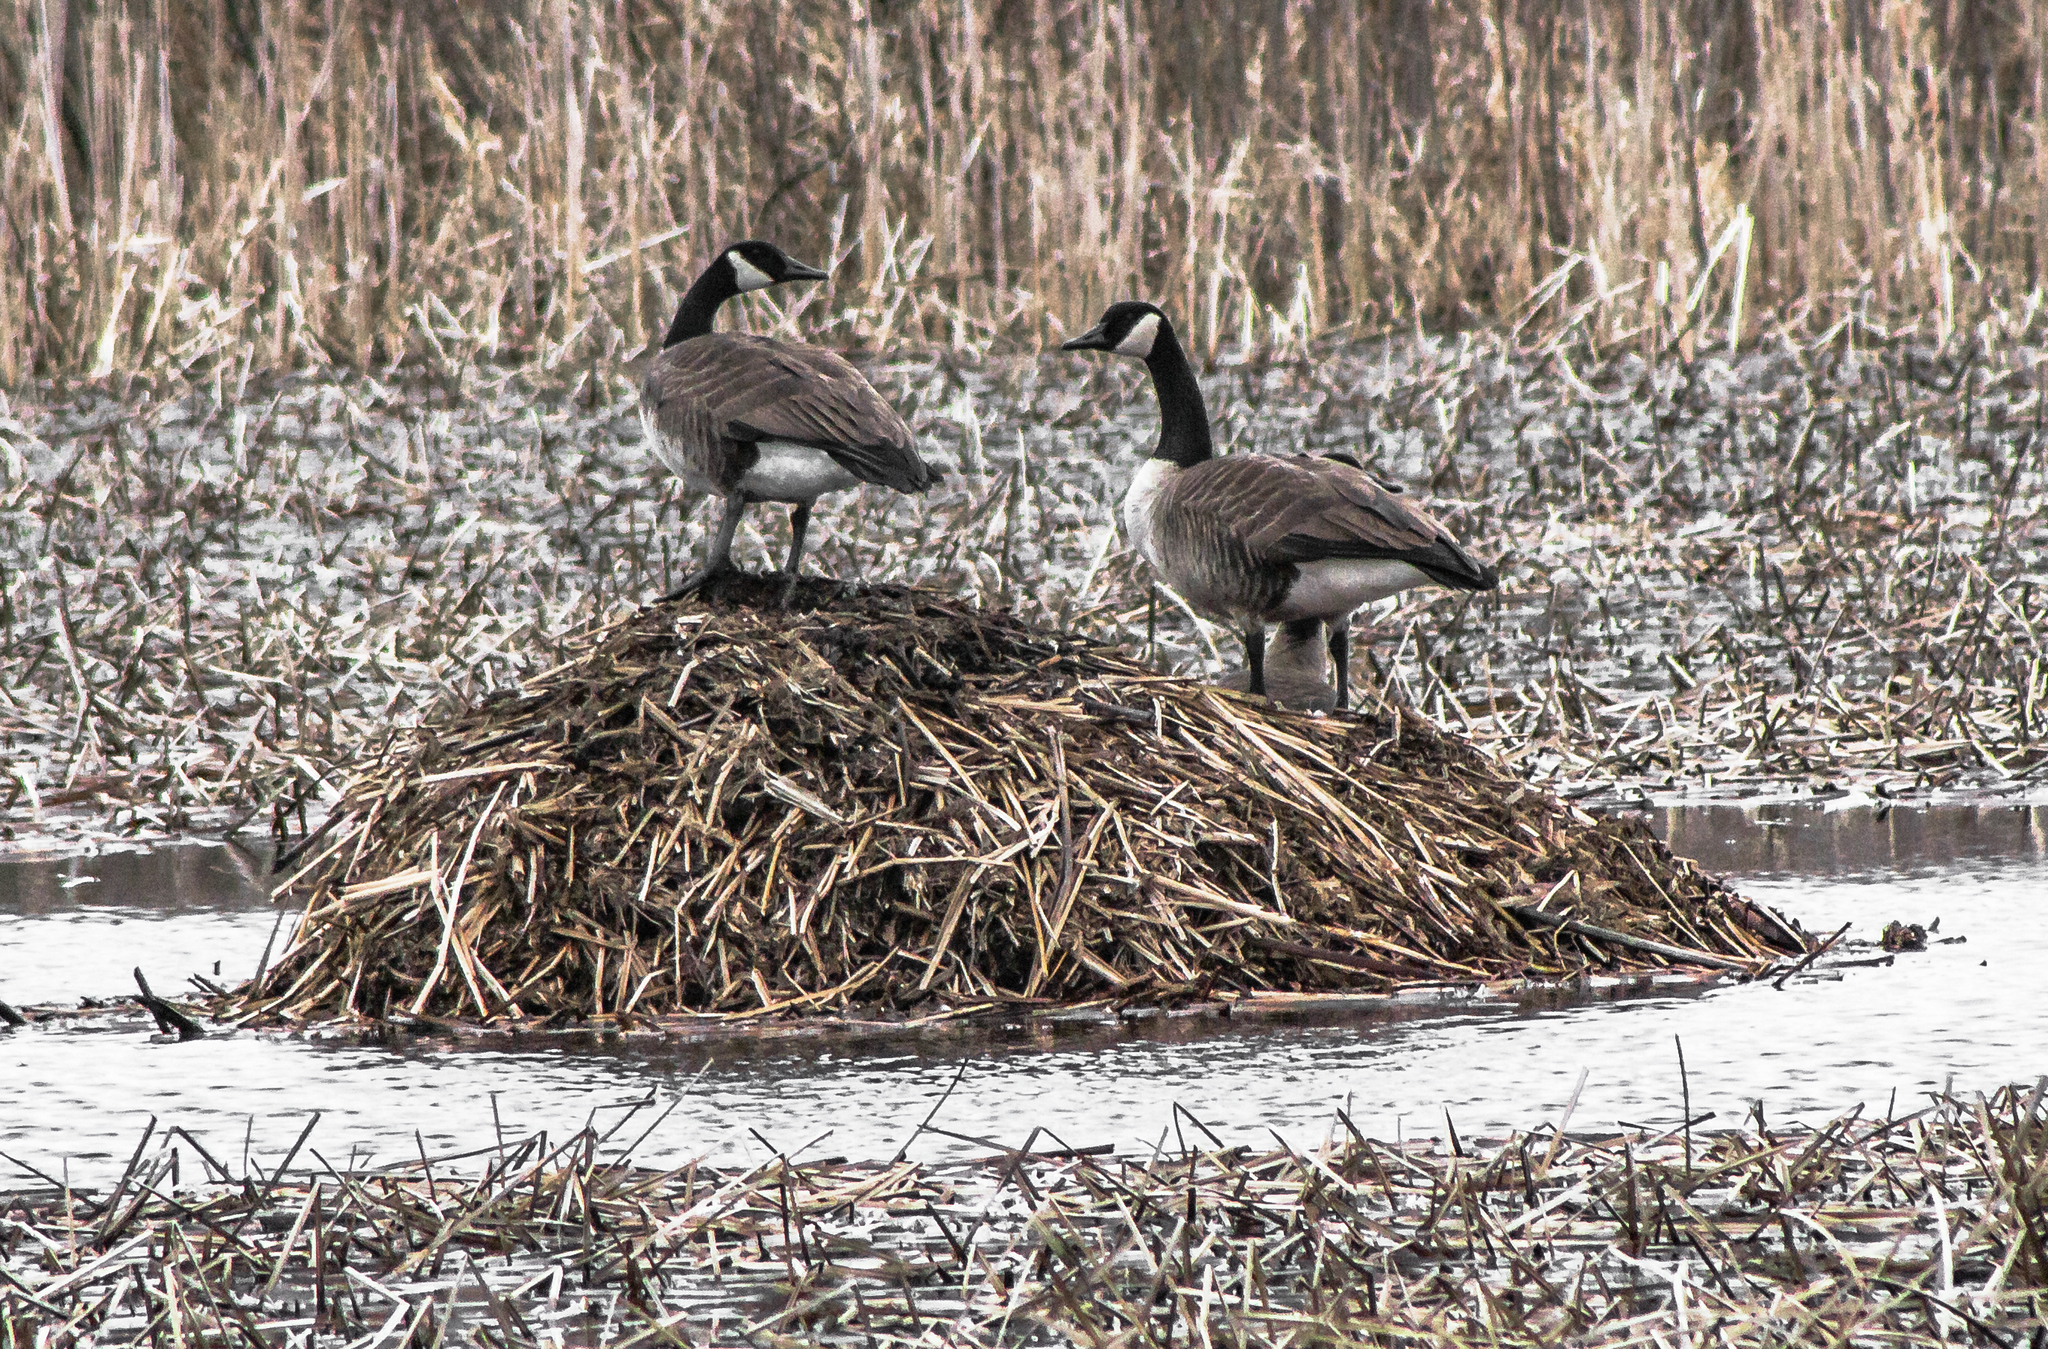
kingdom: Animalia
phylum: Chordata
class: Aves
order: Anseriformes
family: Anatidae
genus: Branta
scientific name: Branta canadensis
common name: Canada goose
